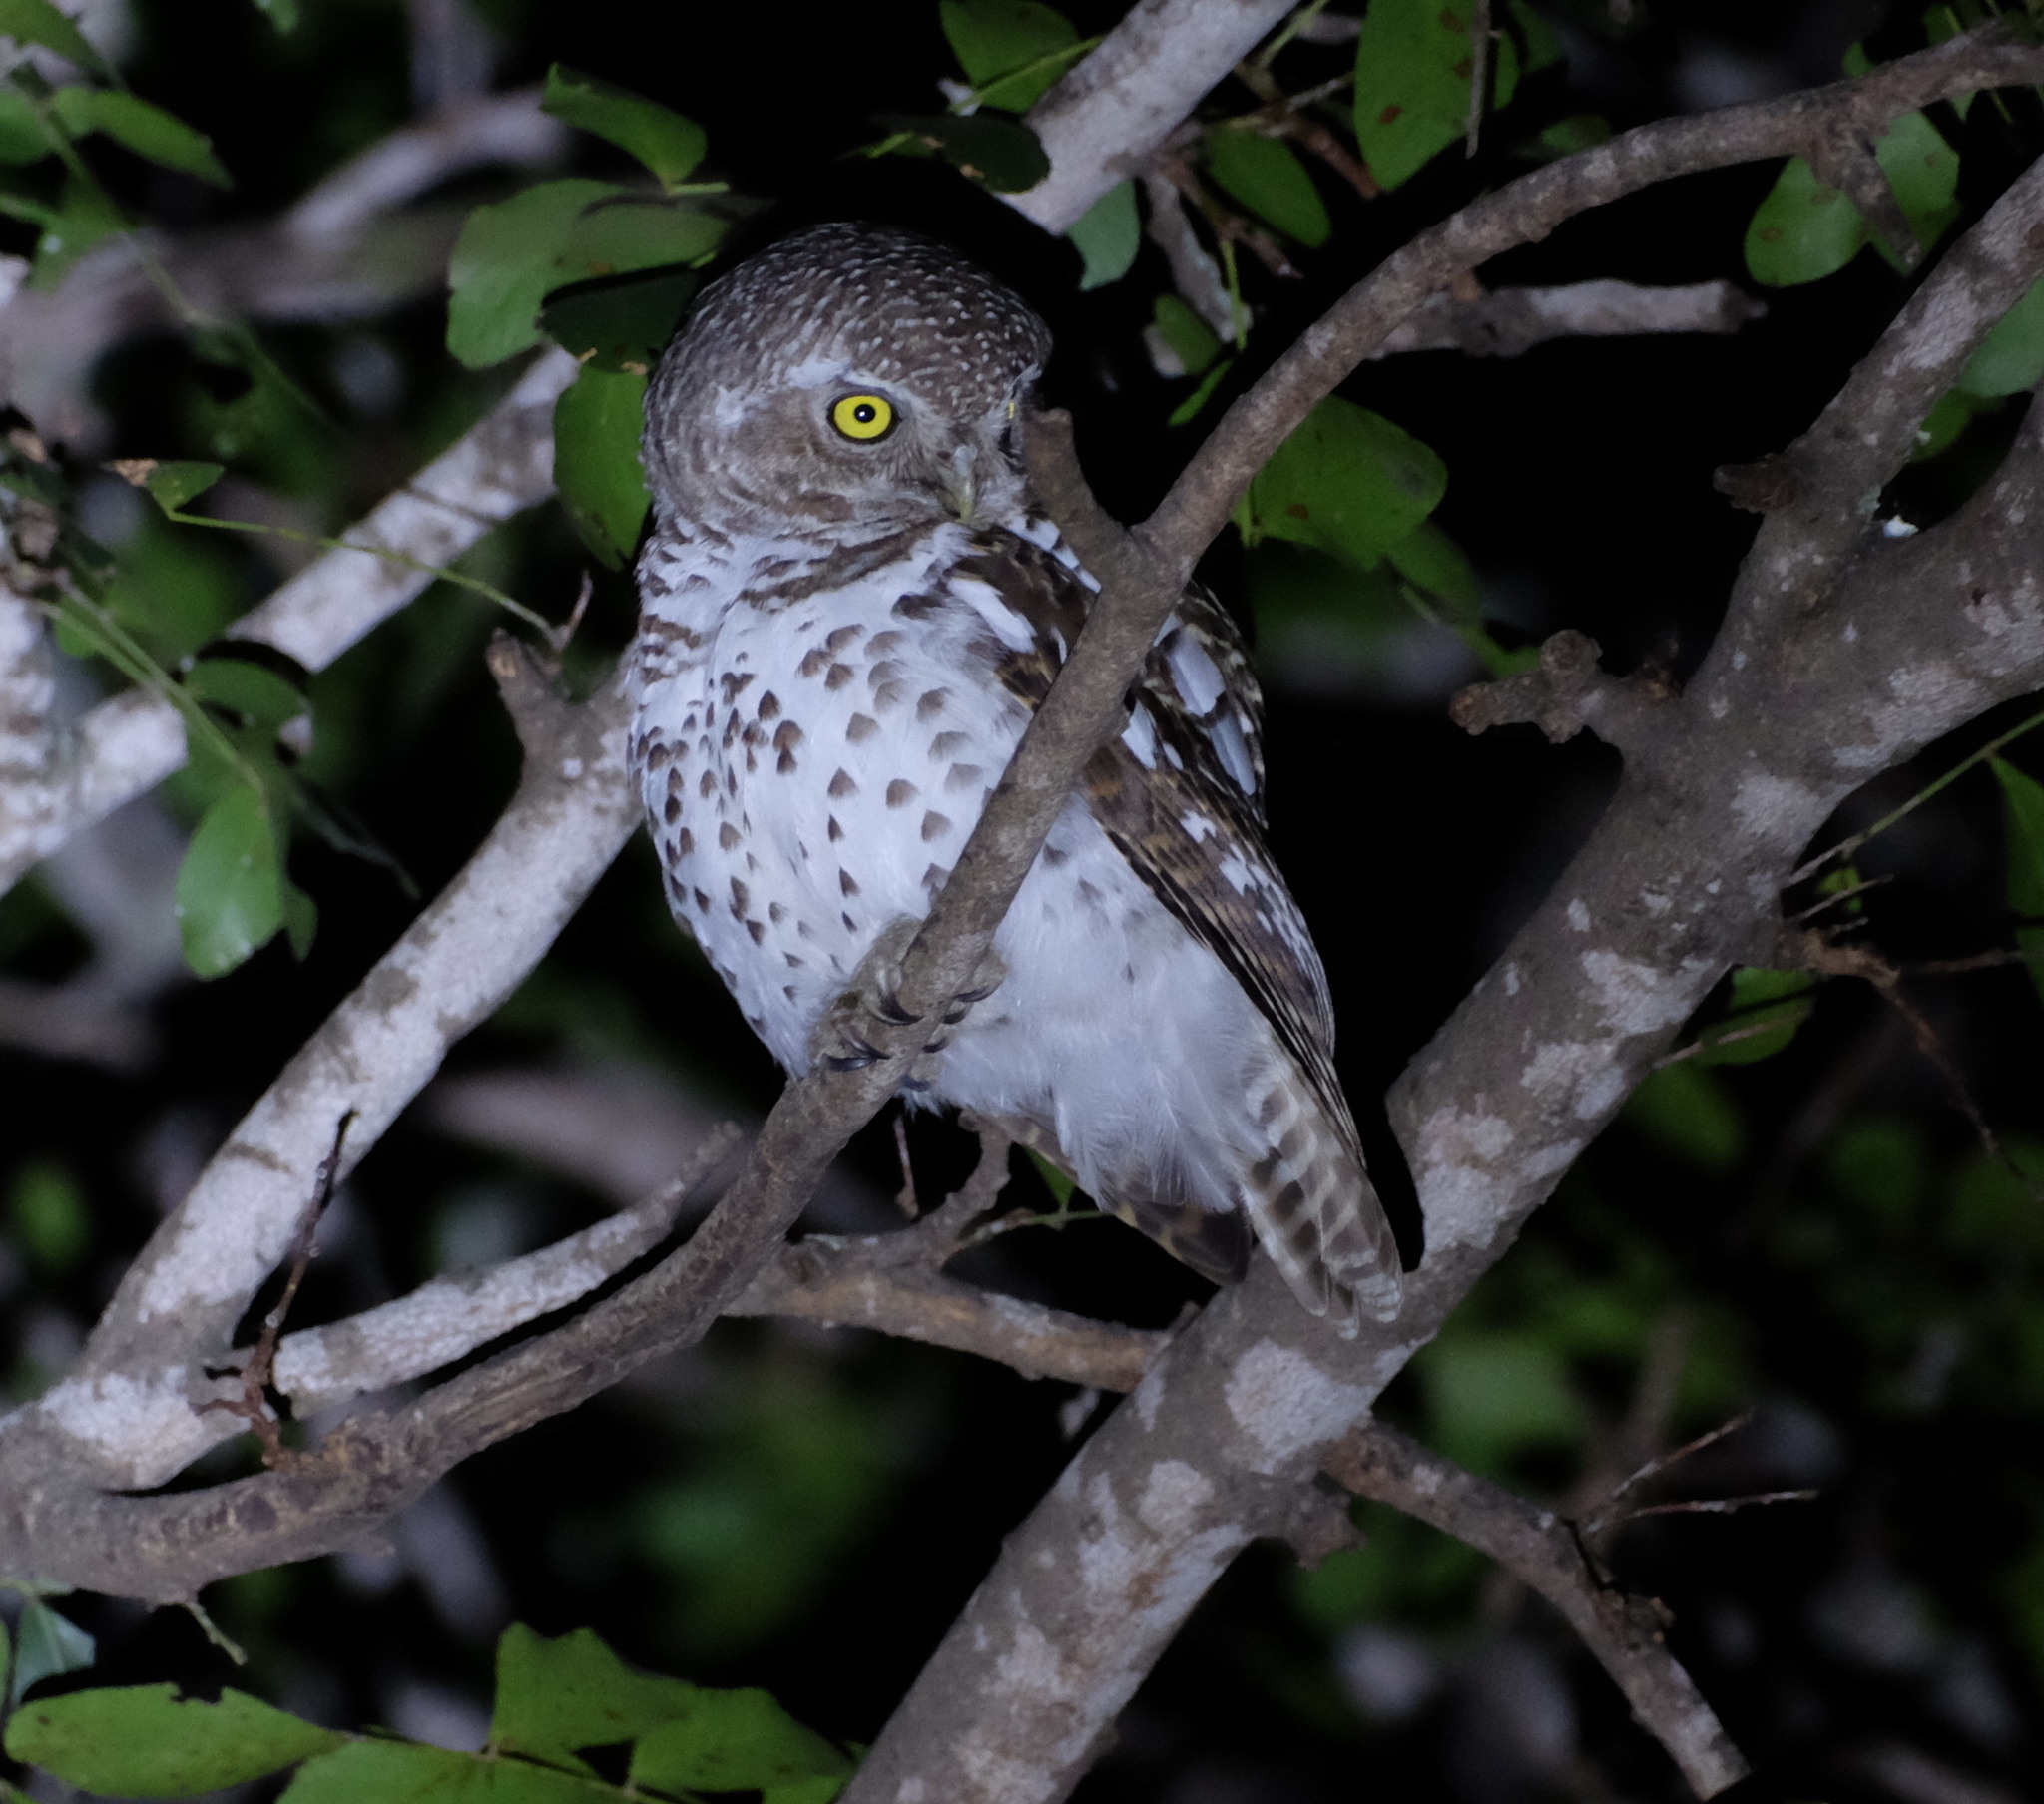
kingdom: Animalia
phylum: Chordata
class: Aves
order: Strigiformes
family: Strigidae
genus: Glaucidium
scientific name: Glaucidium capense
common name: African barred owlet
